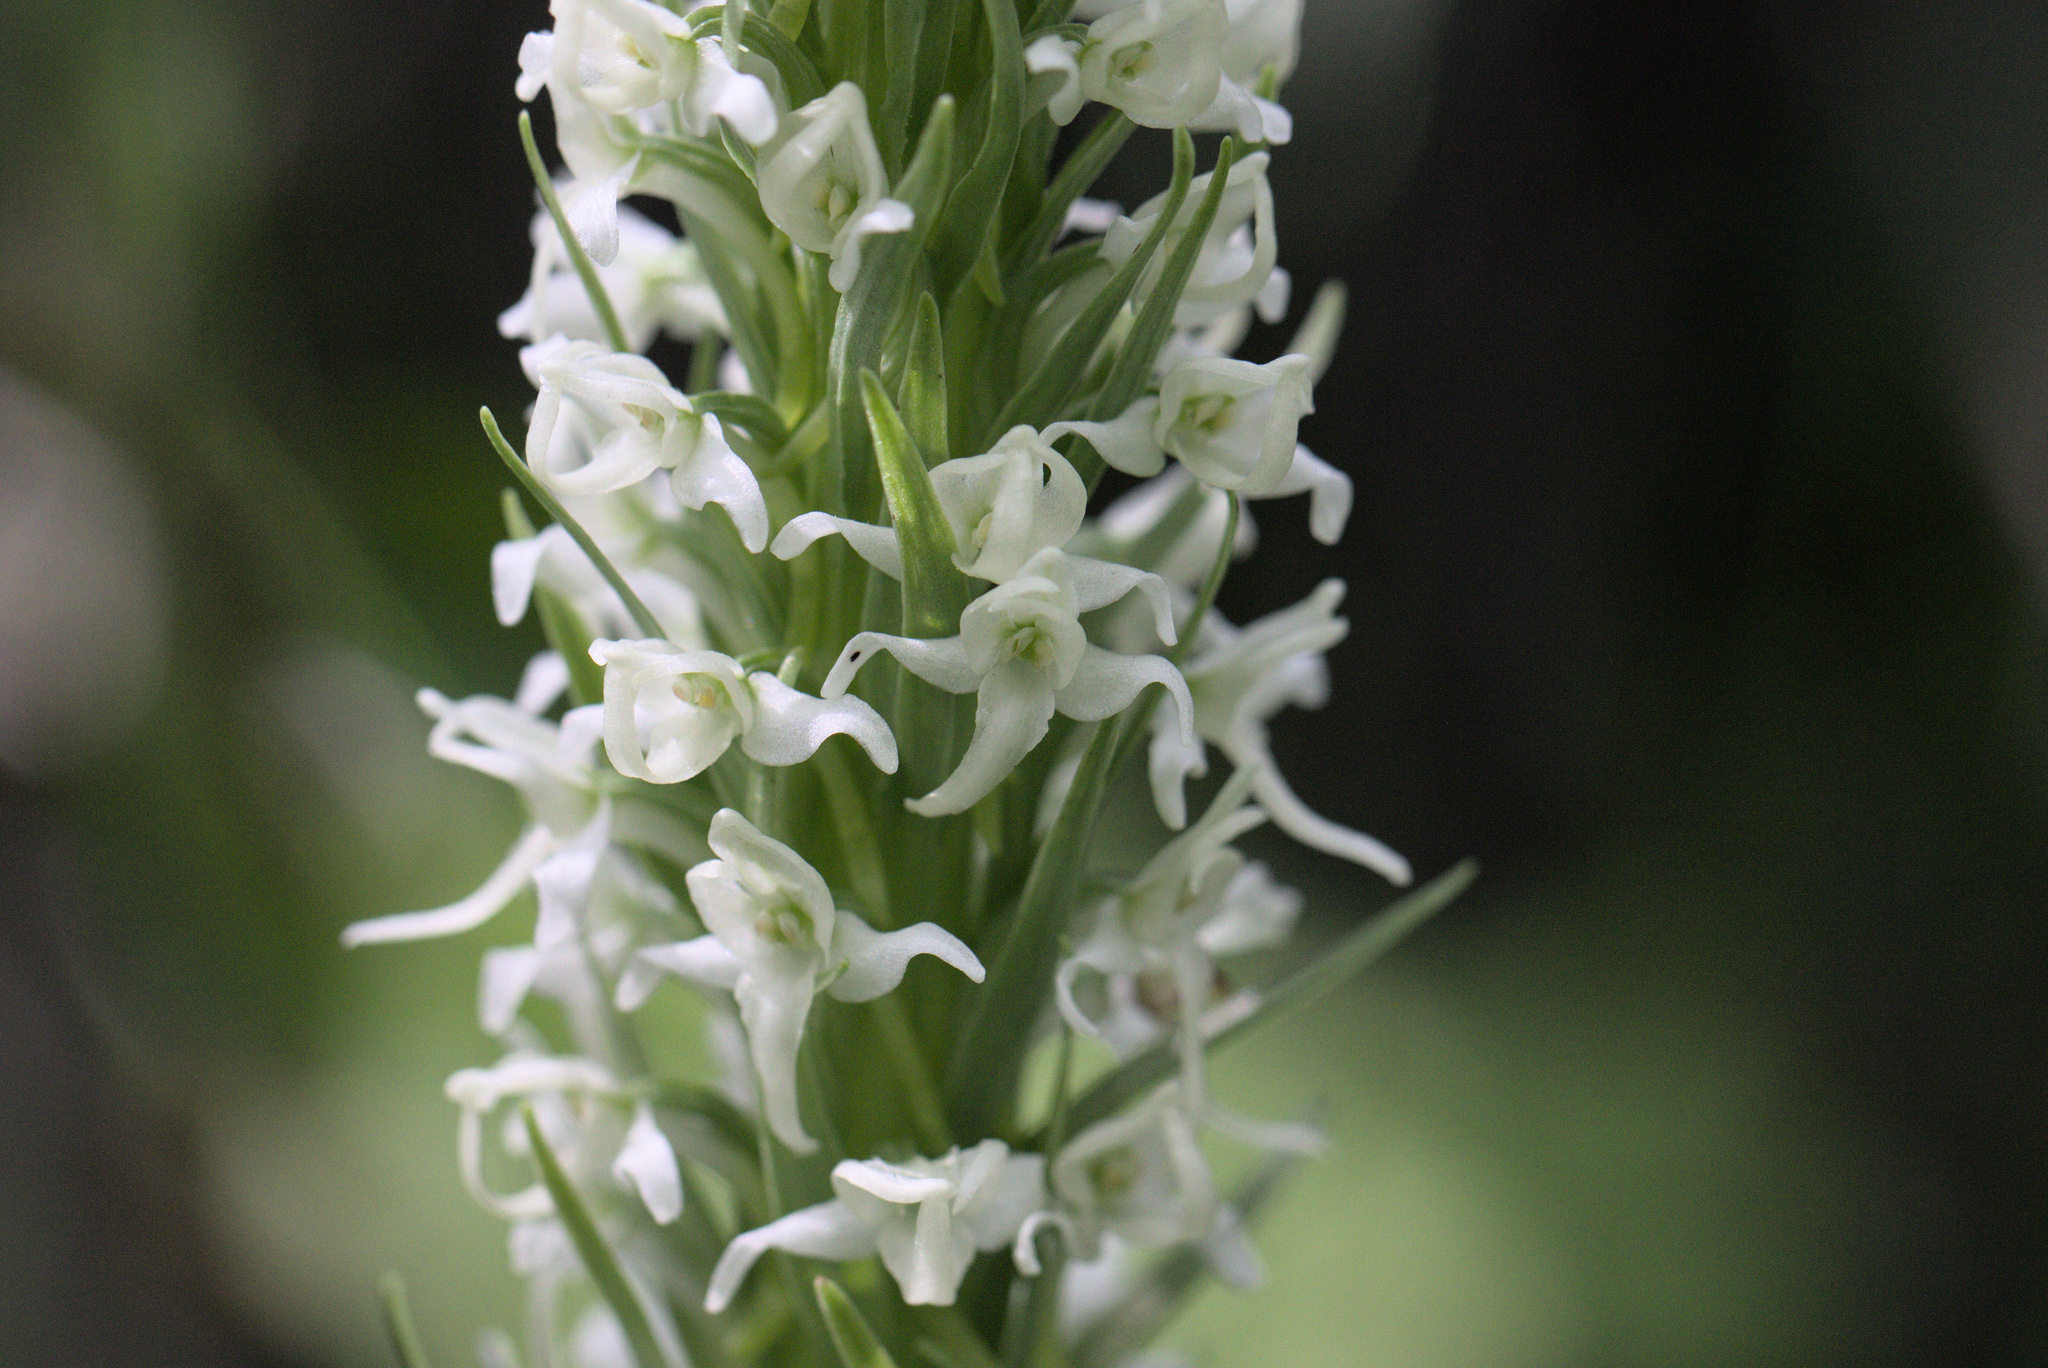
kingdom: Plantae
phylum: Tracheophyta
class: Liliopsida
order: Asparagales
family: Orchidaceae
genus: Platanthera
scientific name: Platanthera dilatata
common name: Bog candles
